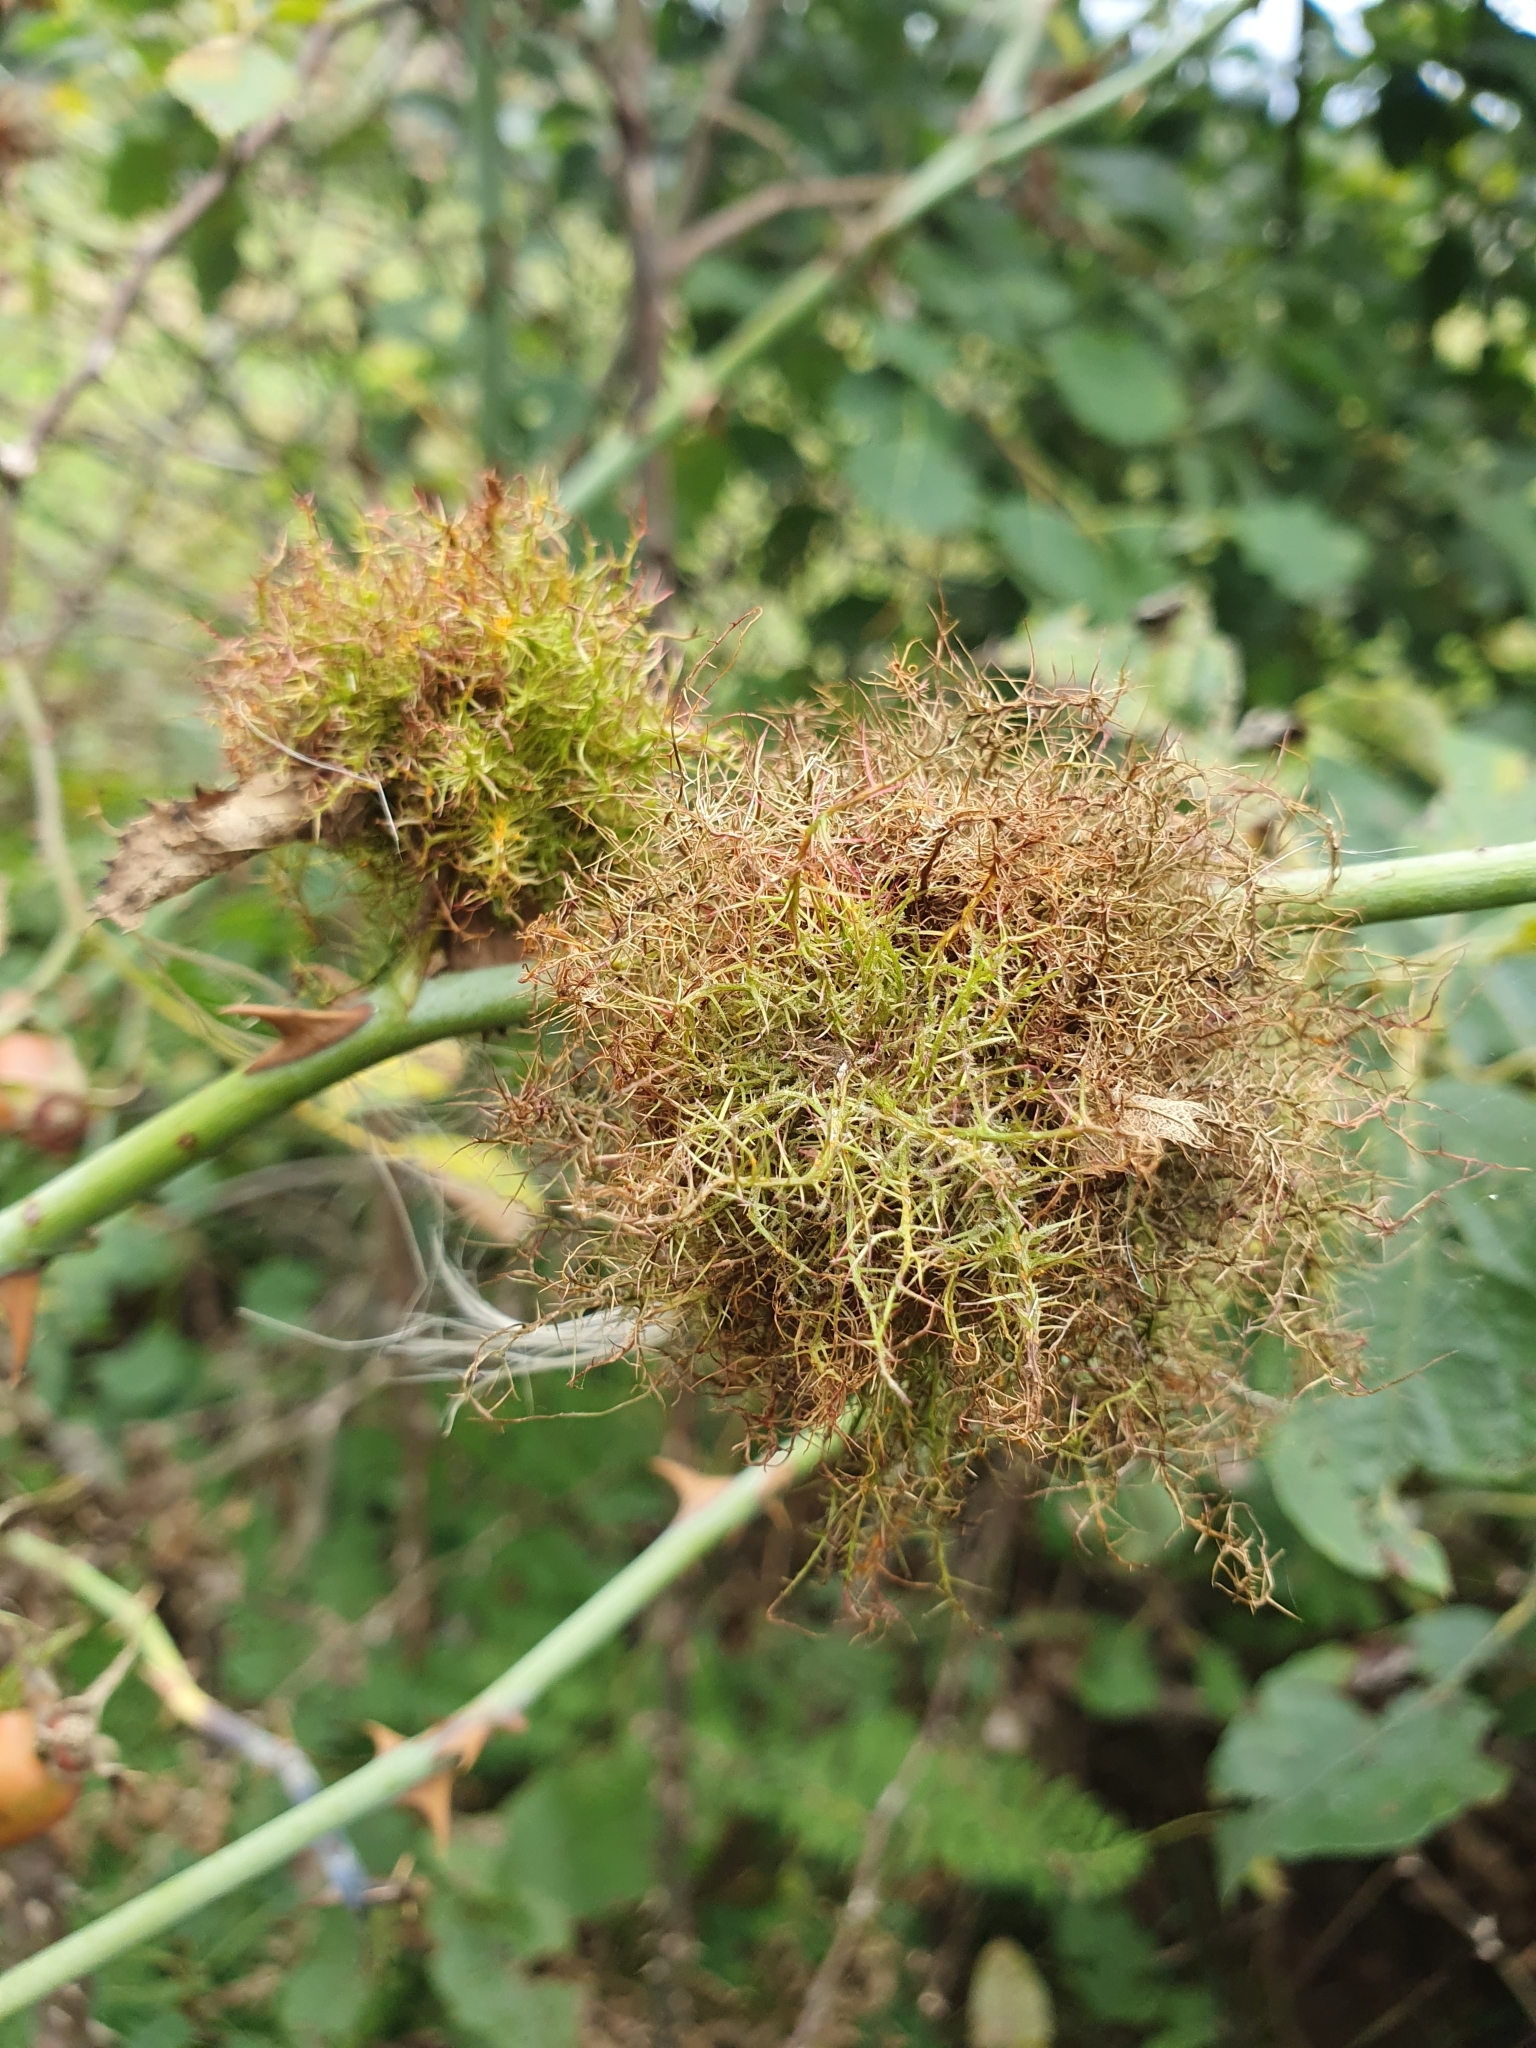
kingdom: Animalia
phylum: Arthropoda
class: Insecta
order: Hymenoptera
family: Cynipidae
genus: Diplolepis
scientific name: Diplolepis rosae
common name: Bedeguar gall
